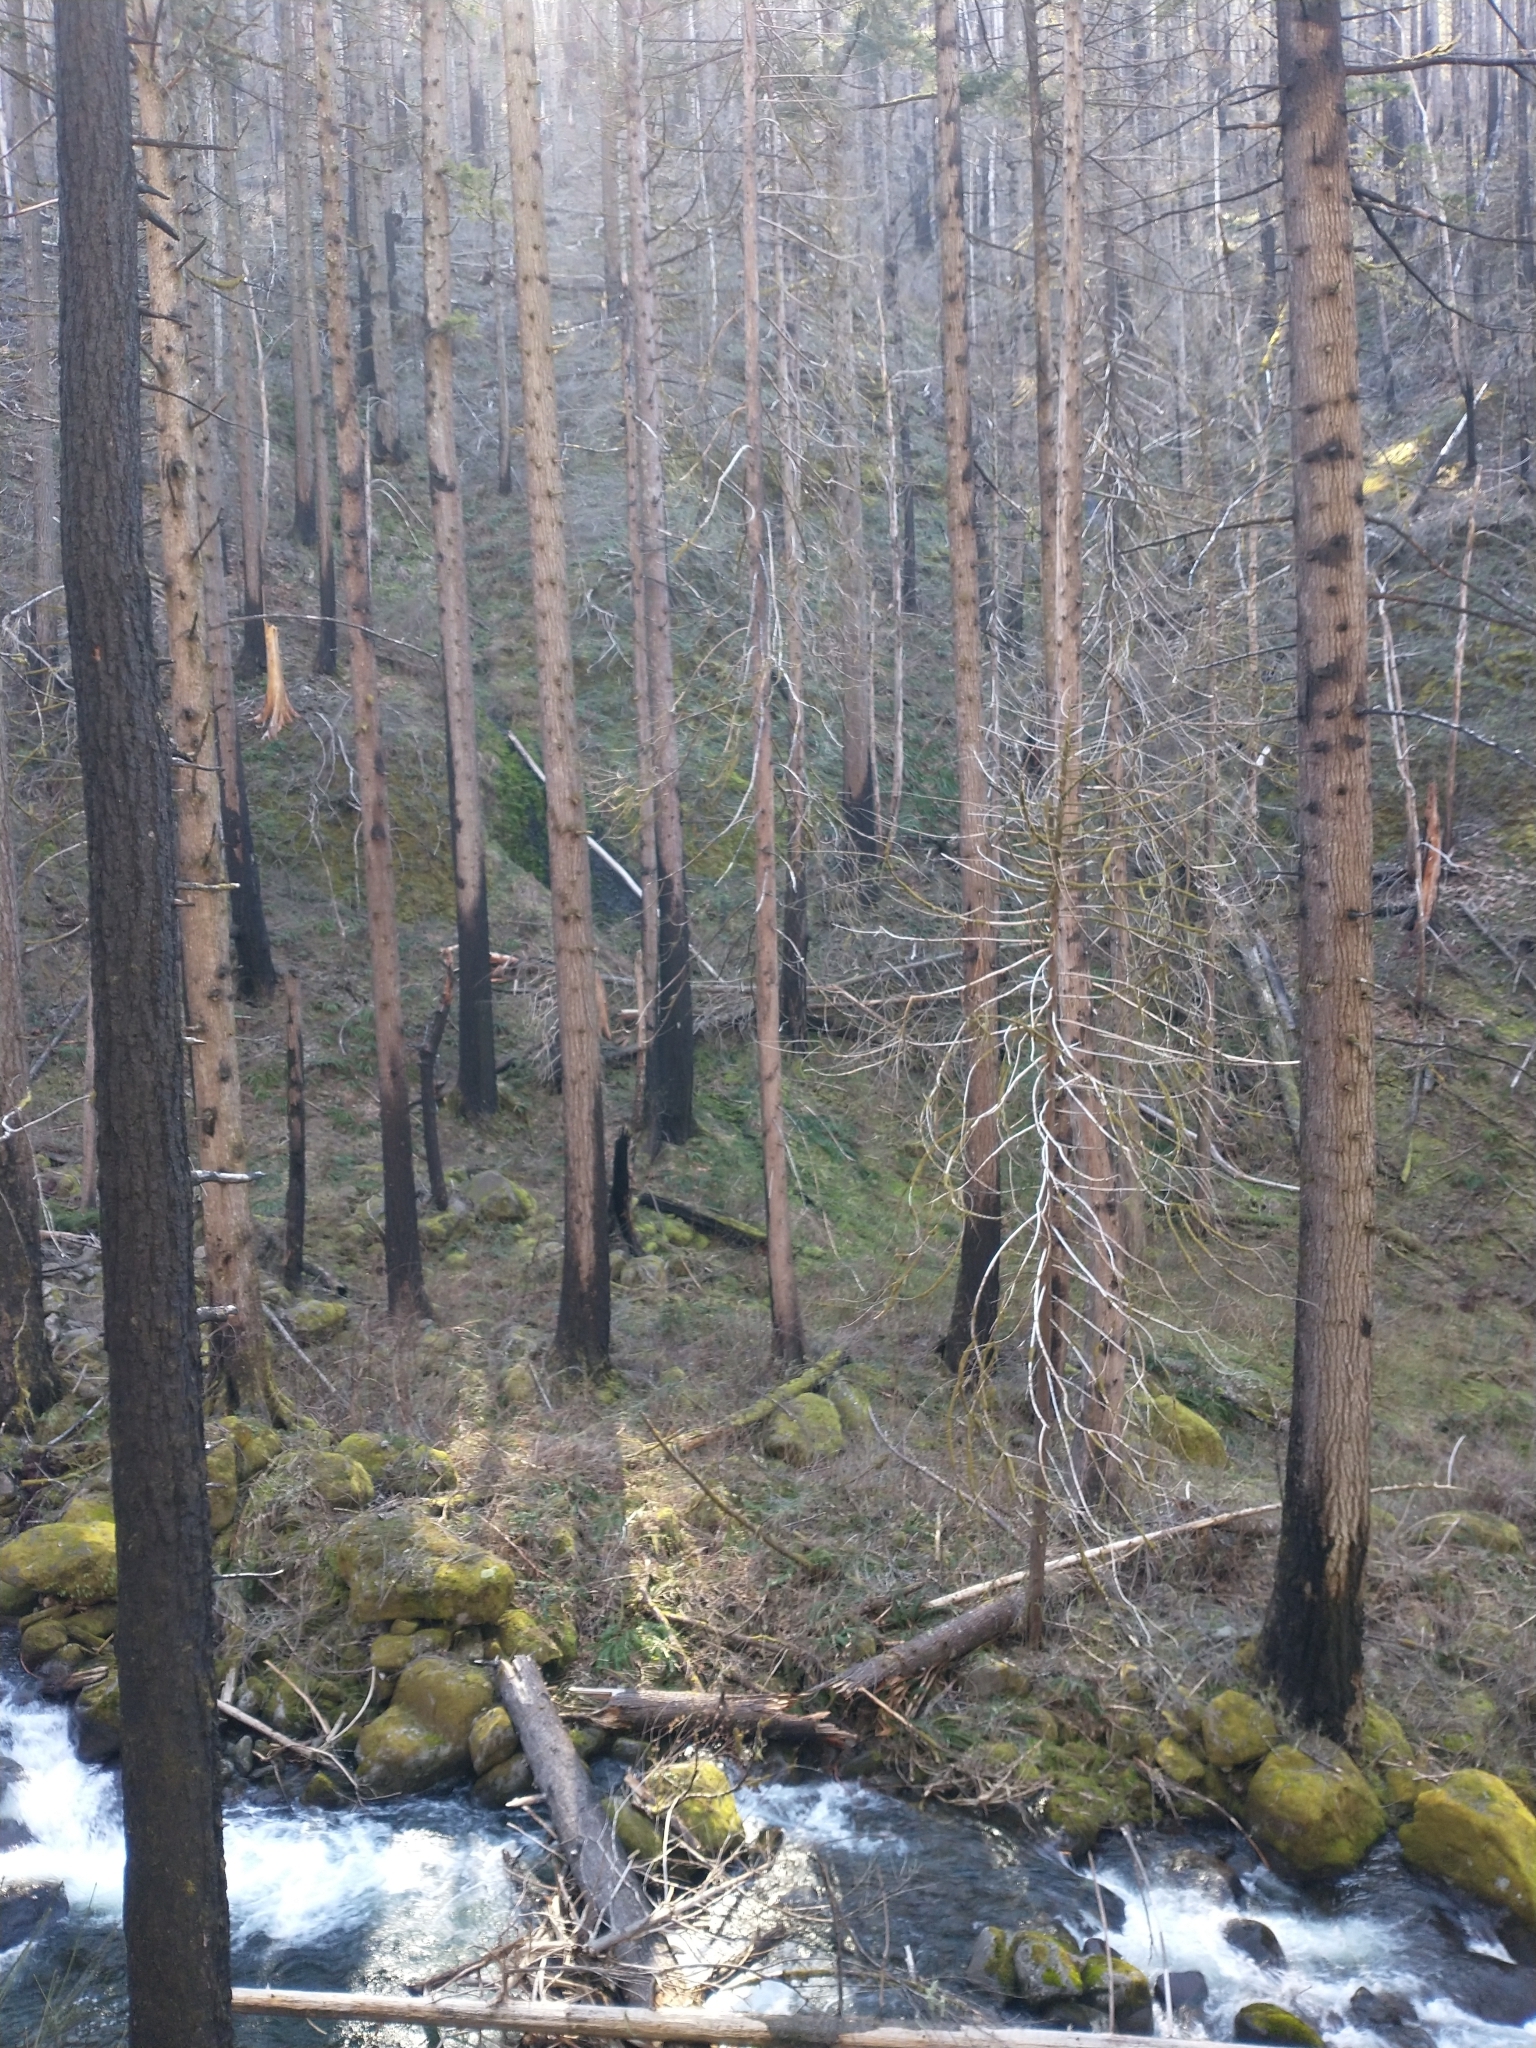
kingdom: Plantae
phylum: Tracheophyta
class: Pinopsida
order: Pinales
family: Pinaceae
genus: Pseudotsuga
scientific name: Pseudotsuga menziesii
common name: Douglas fir
